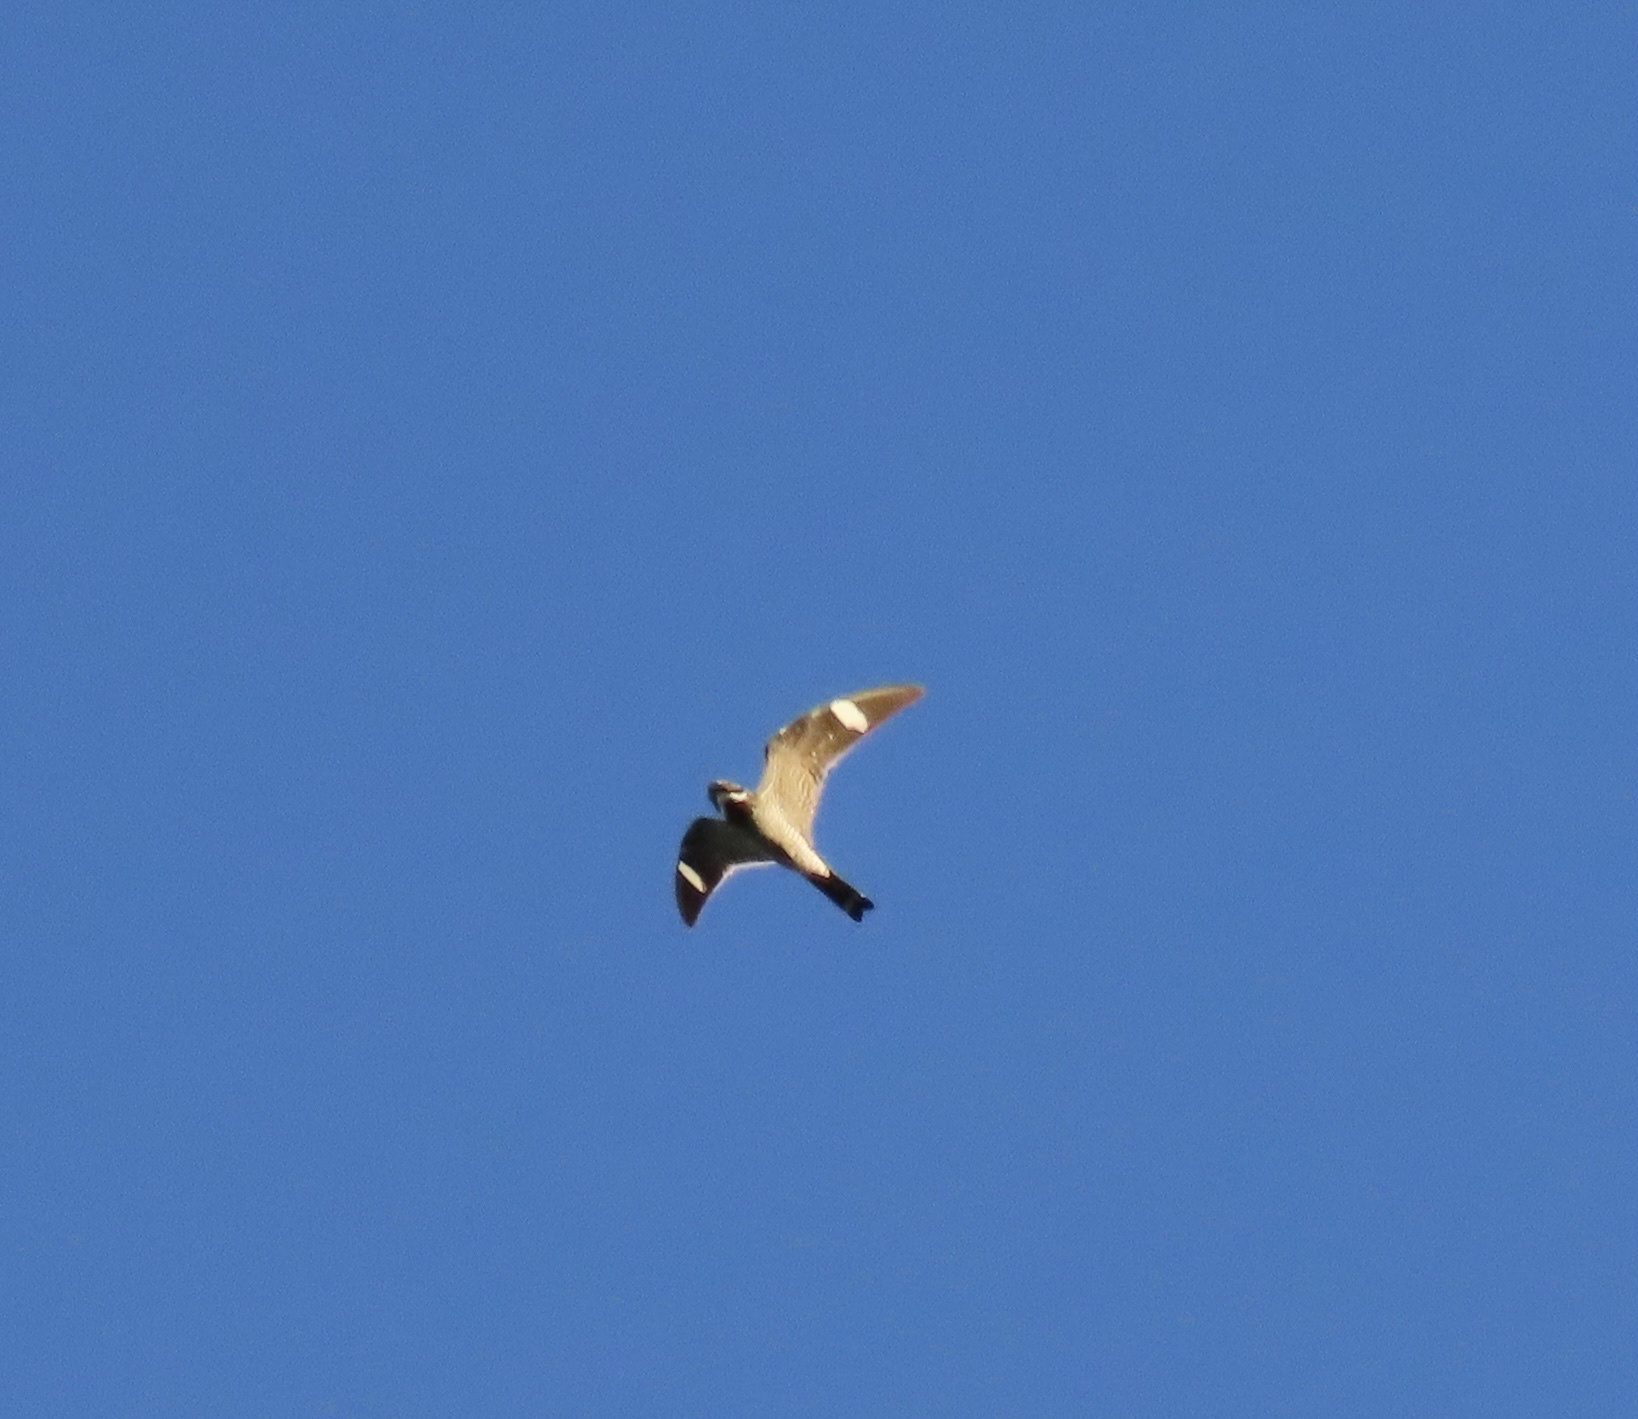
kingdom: Animalia
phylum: Chordata
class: Aves
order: Caprimulgiformes
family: Caprimulgidae
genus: Chordeiles
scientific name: Chordeiles minor
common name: Common nighthawk
